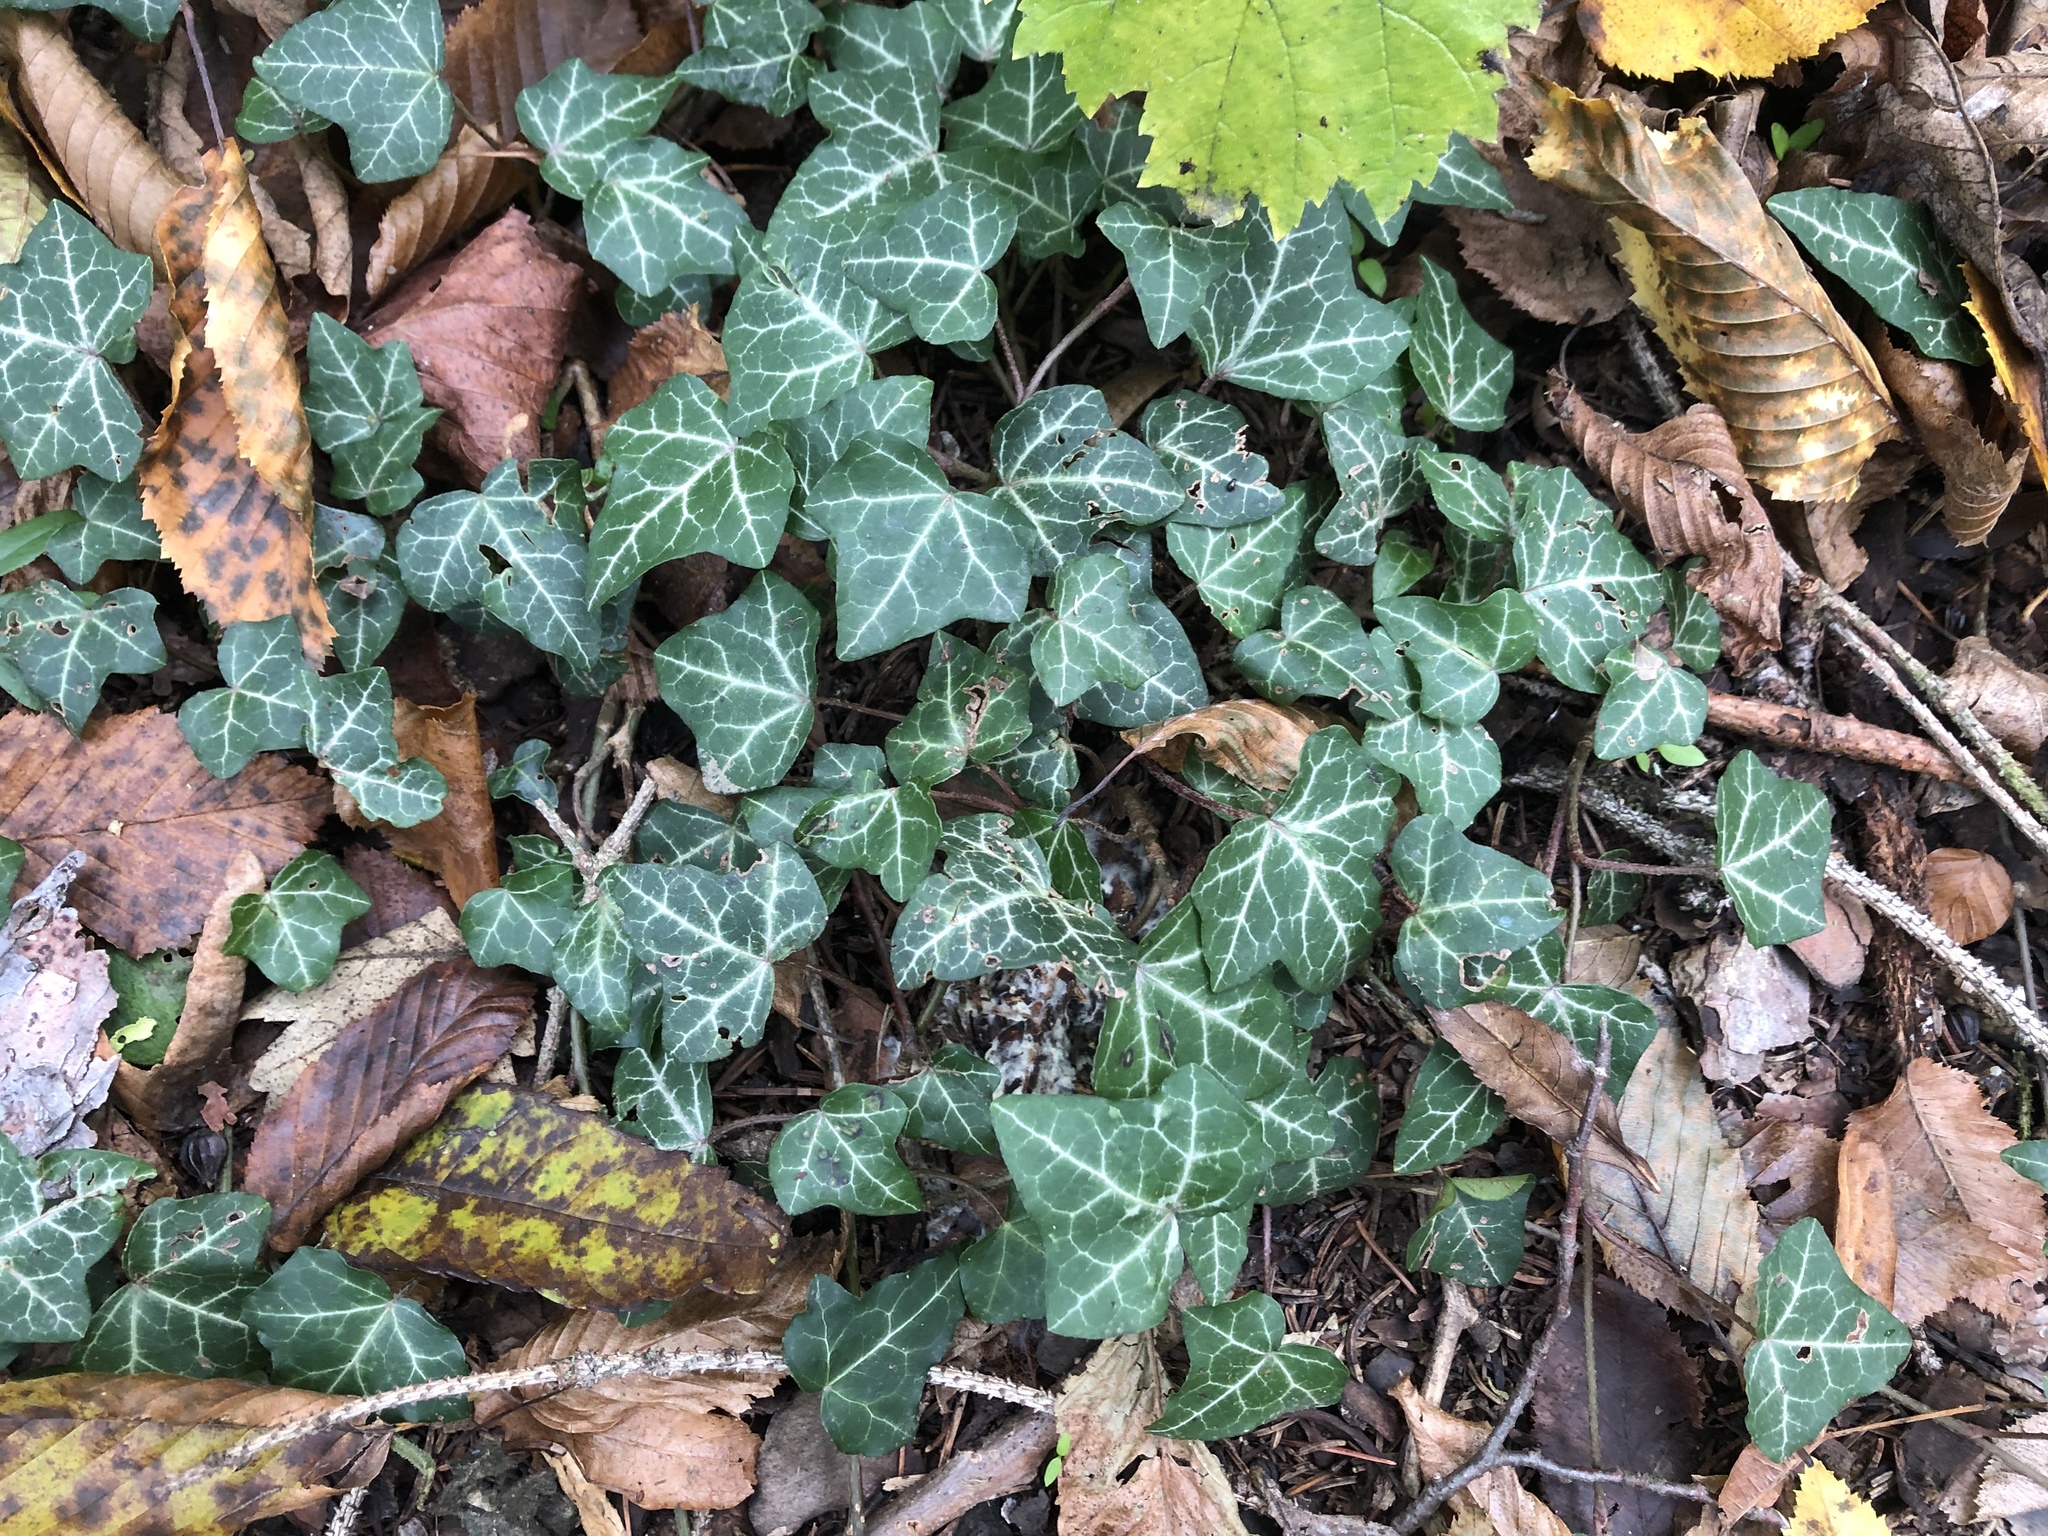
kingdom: Plantae
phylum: Tracheophyta
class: Magnoliopsida
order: Apiales
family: Araliaceae
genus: Hedera
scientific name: Hedera helix
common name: Ivy
